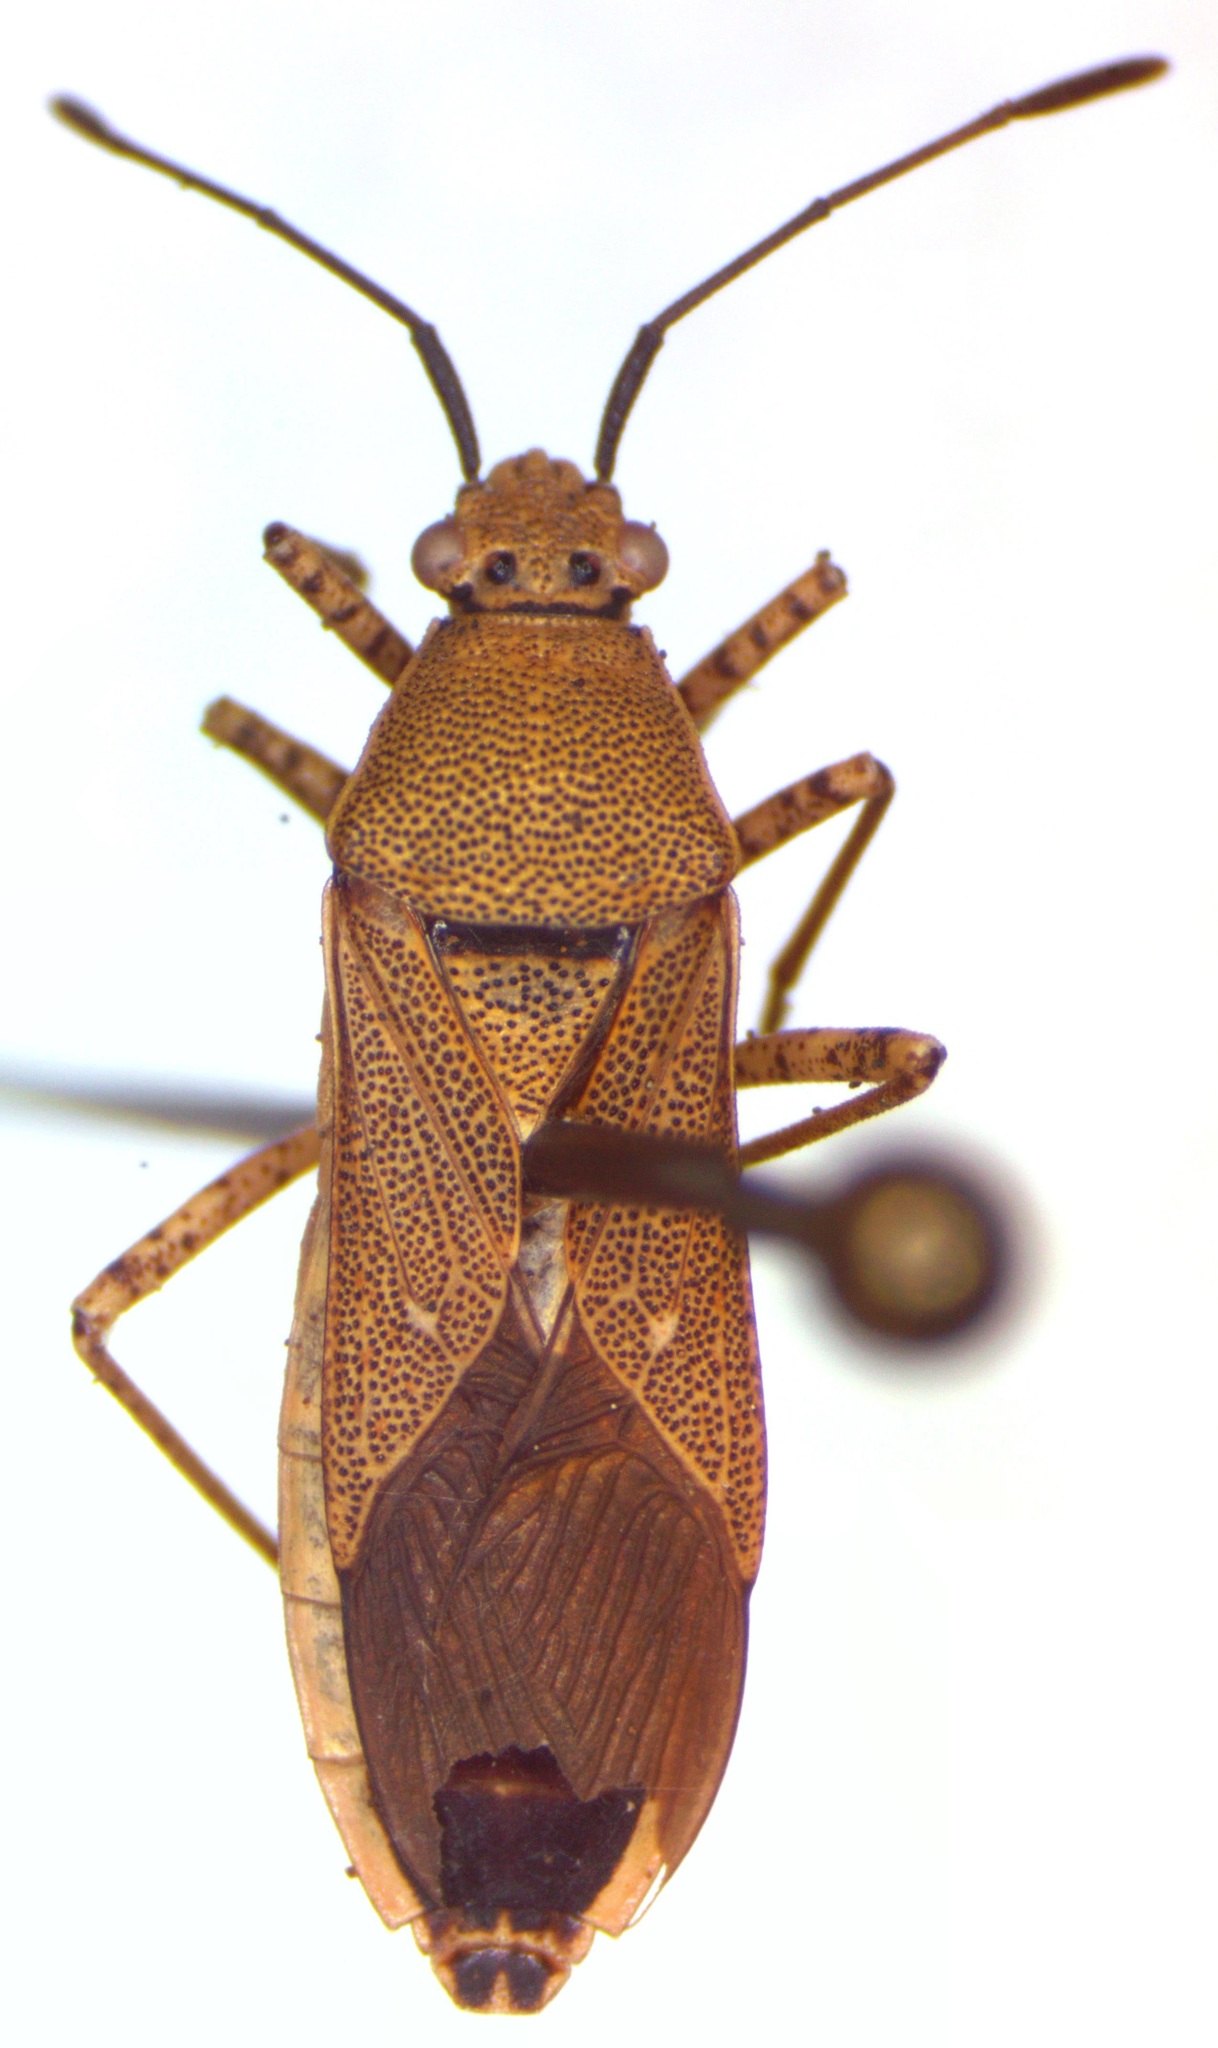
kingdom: Animalia
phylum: Arthropoda
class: Insecta
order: Hemiptera
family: Coreidae
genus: Catorhintha
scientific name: Catorhintha selector
